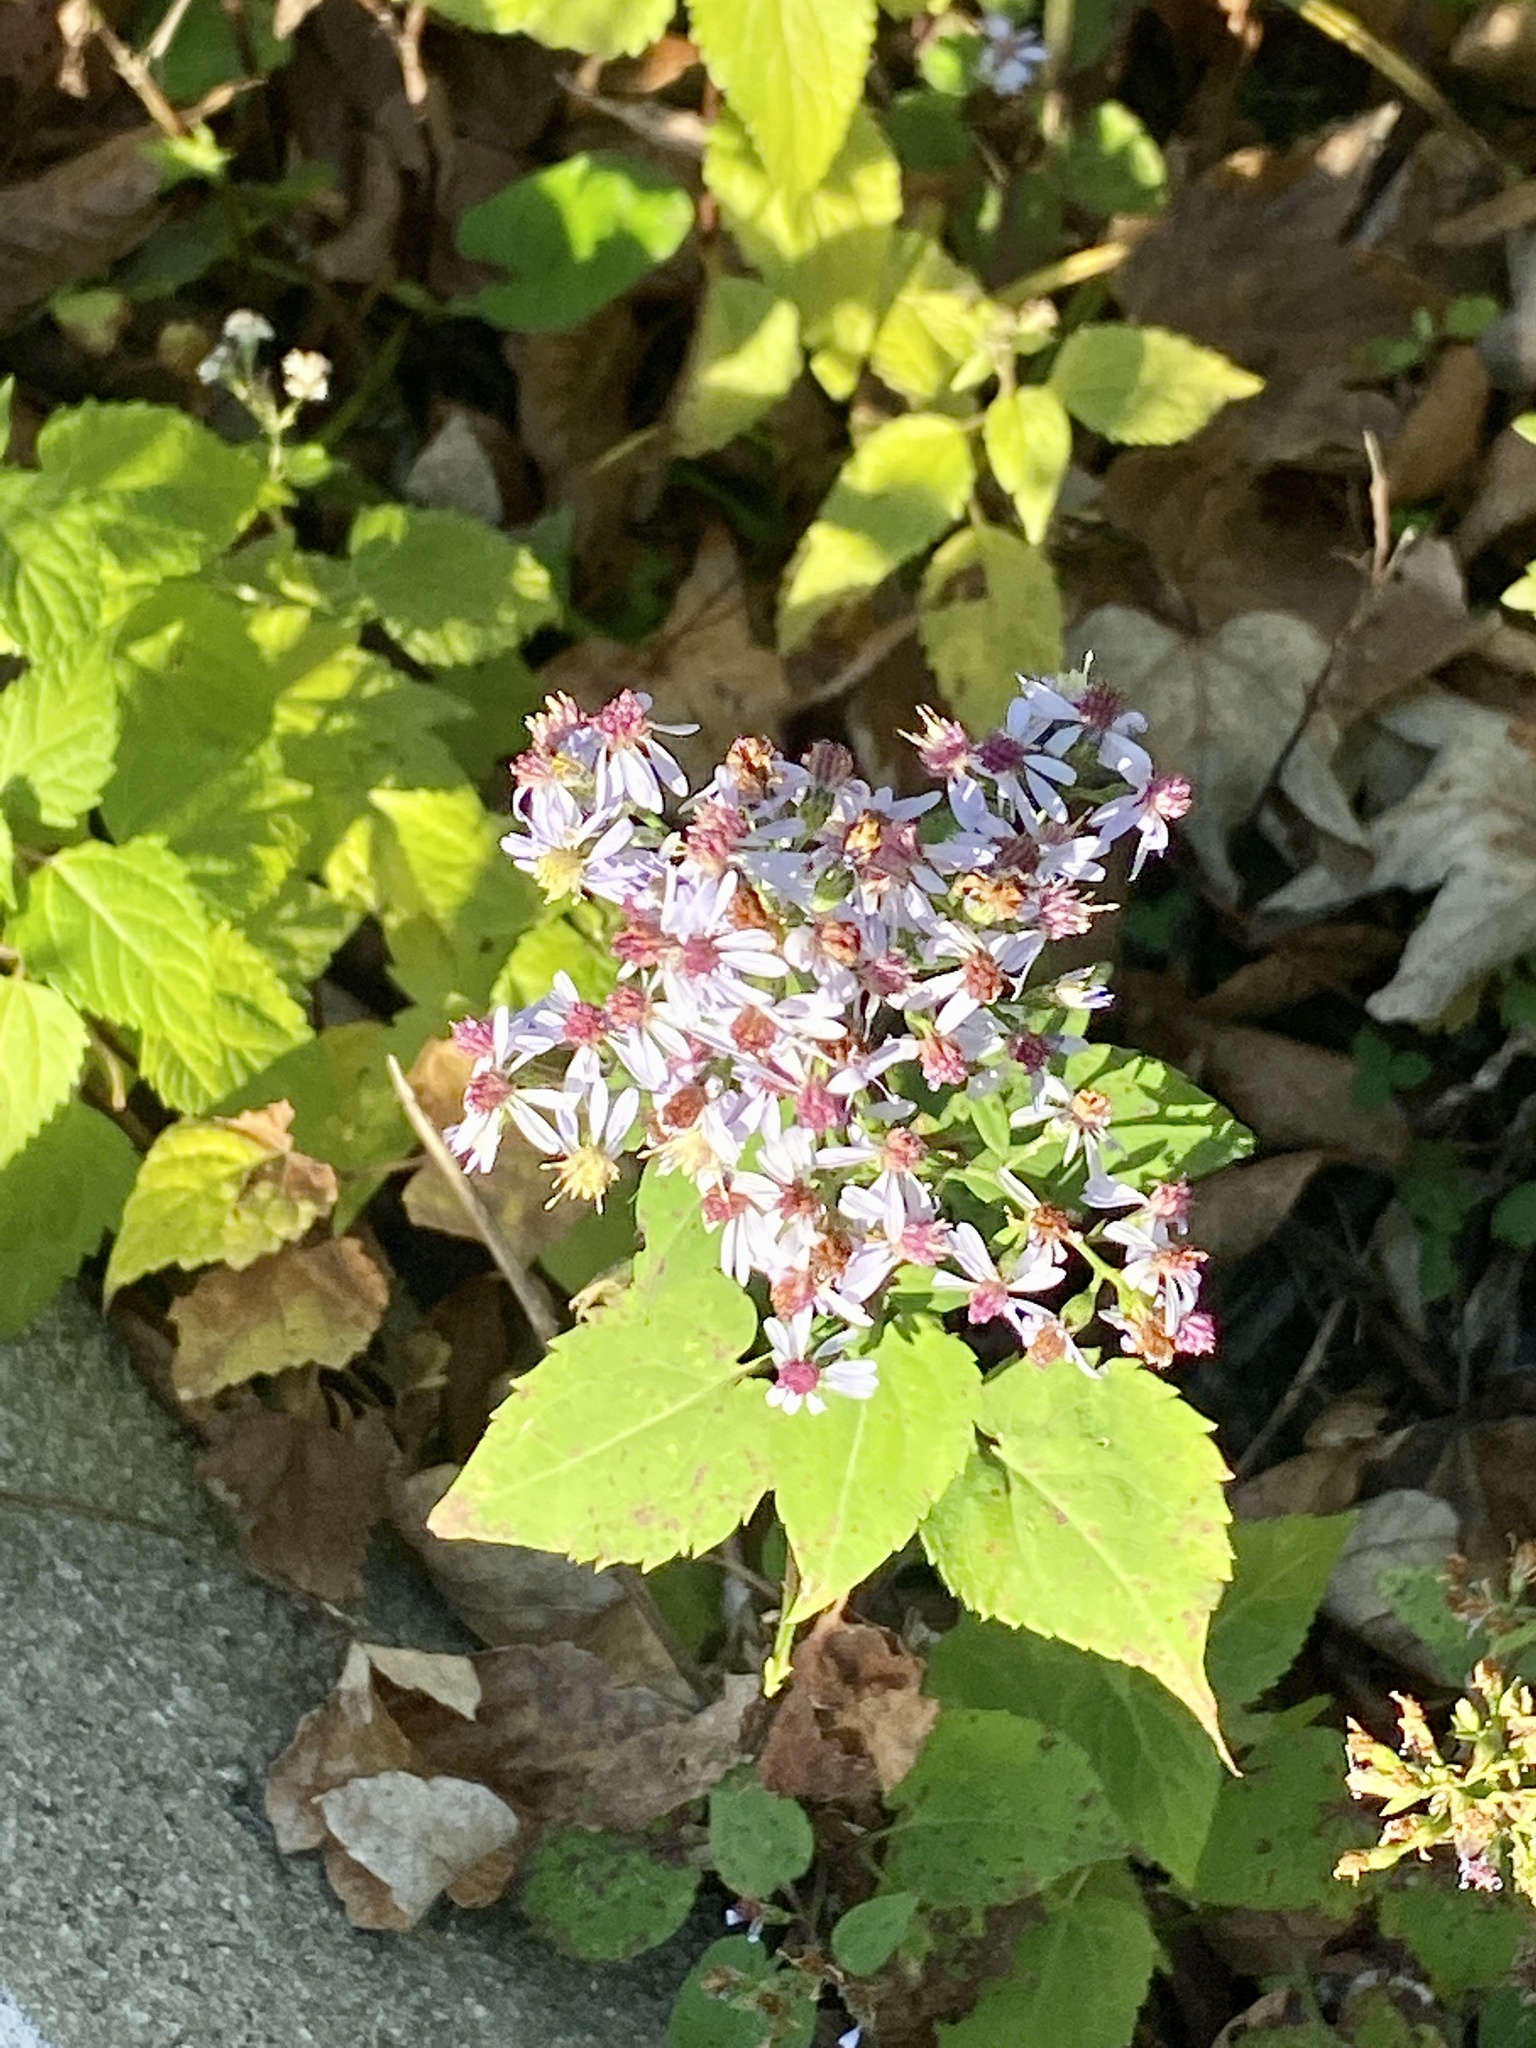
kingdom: Plantae
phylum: Tracheophyta
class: Magnoliopsida
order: Asterales
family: Asteraceae
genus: Symphyotrichum
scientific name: Symphyotrichum cordifolium
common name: Beeweed
